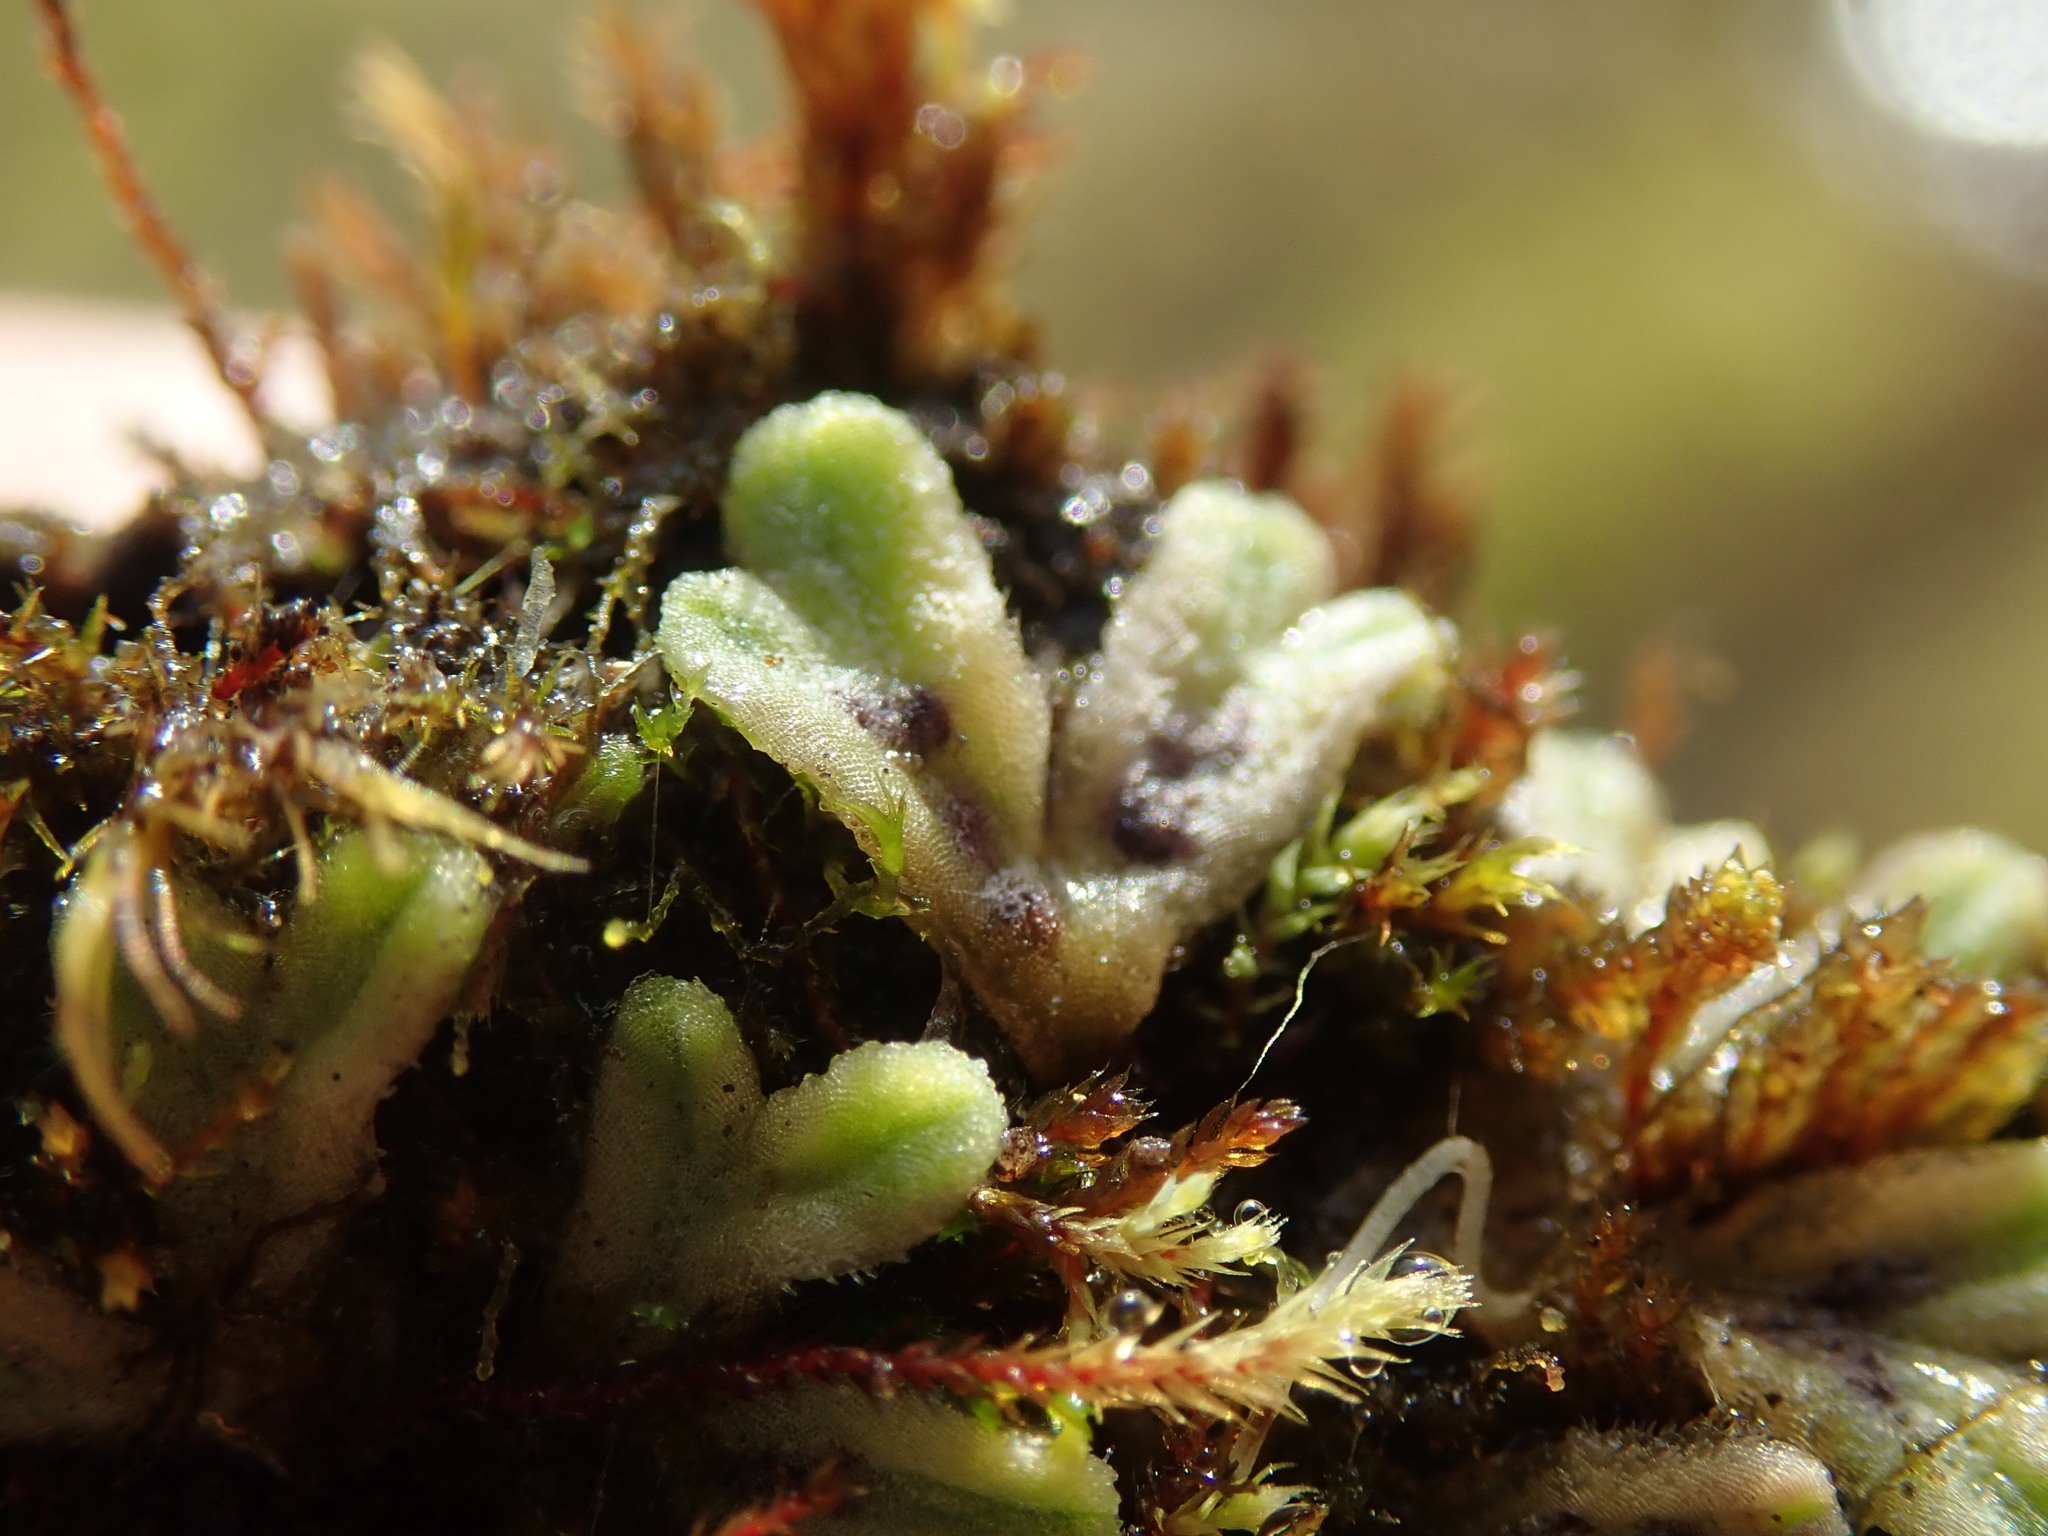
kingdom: Plantae
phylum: Marchantiophyta
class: Marchantiopsida
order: Marchantiales
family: Ricciaceae
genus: Riccia
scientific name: Riccia beyrichiana
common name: Purple crystalwort
